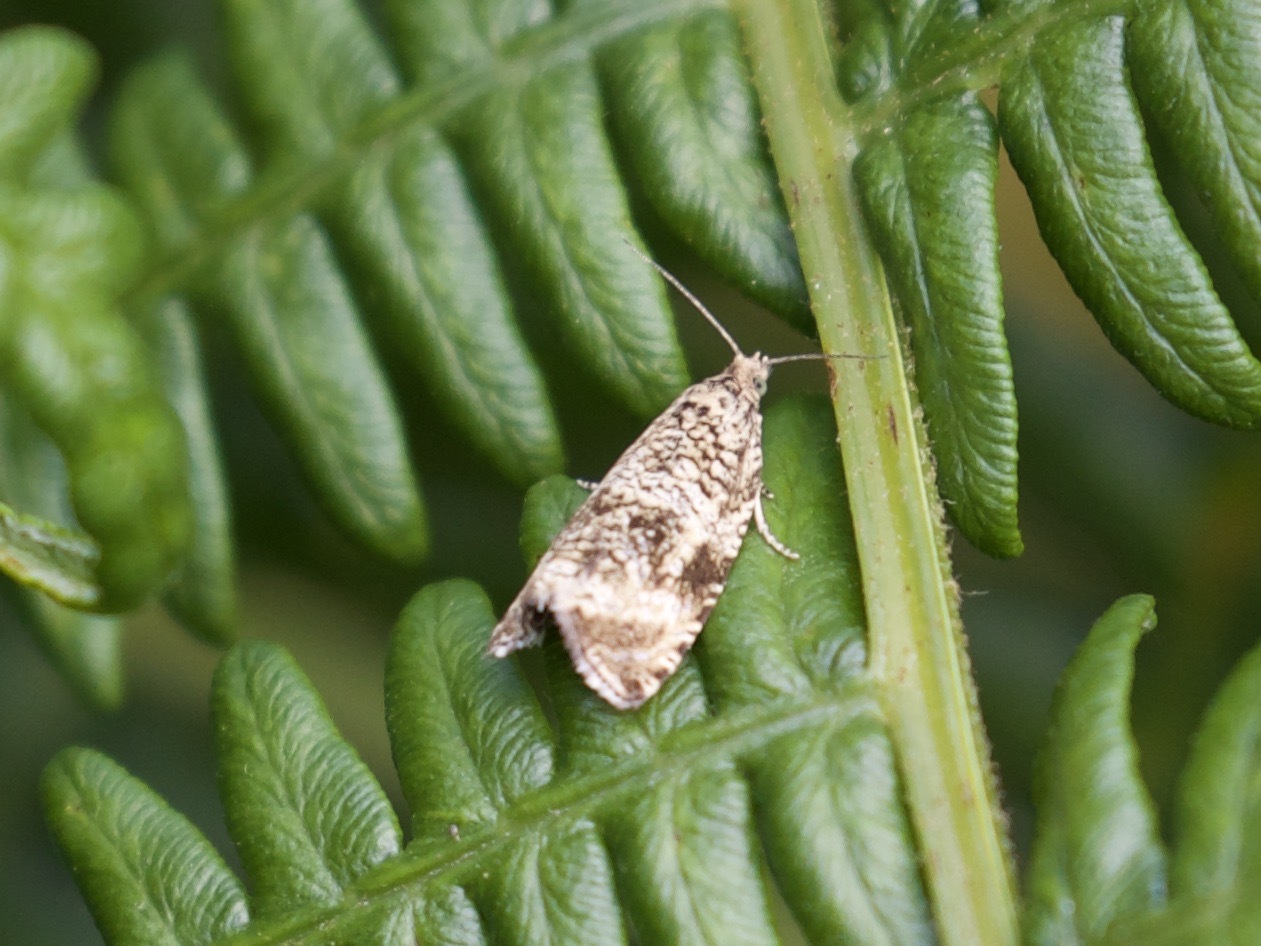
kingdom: Animalia
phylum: Arthropoda
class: Insecta
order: Lepidoptera
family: Tortricidae
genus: Syricoris
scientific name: Syricoris lacunana
